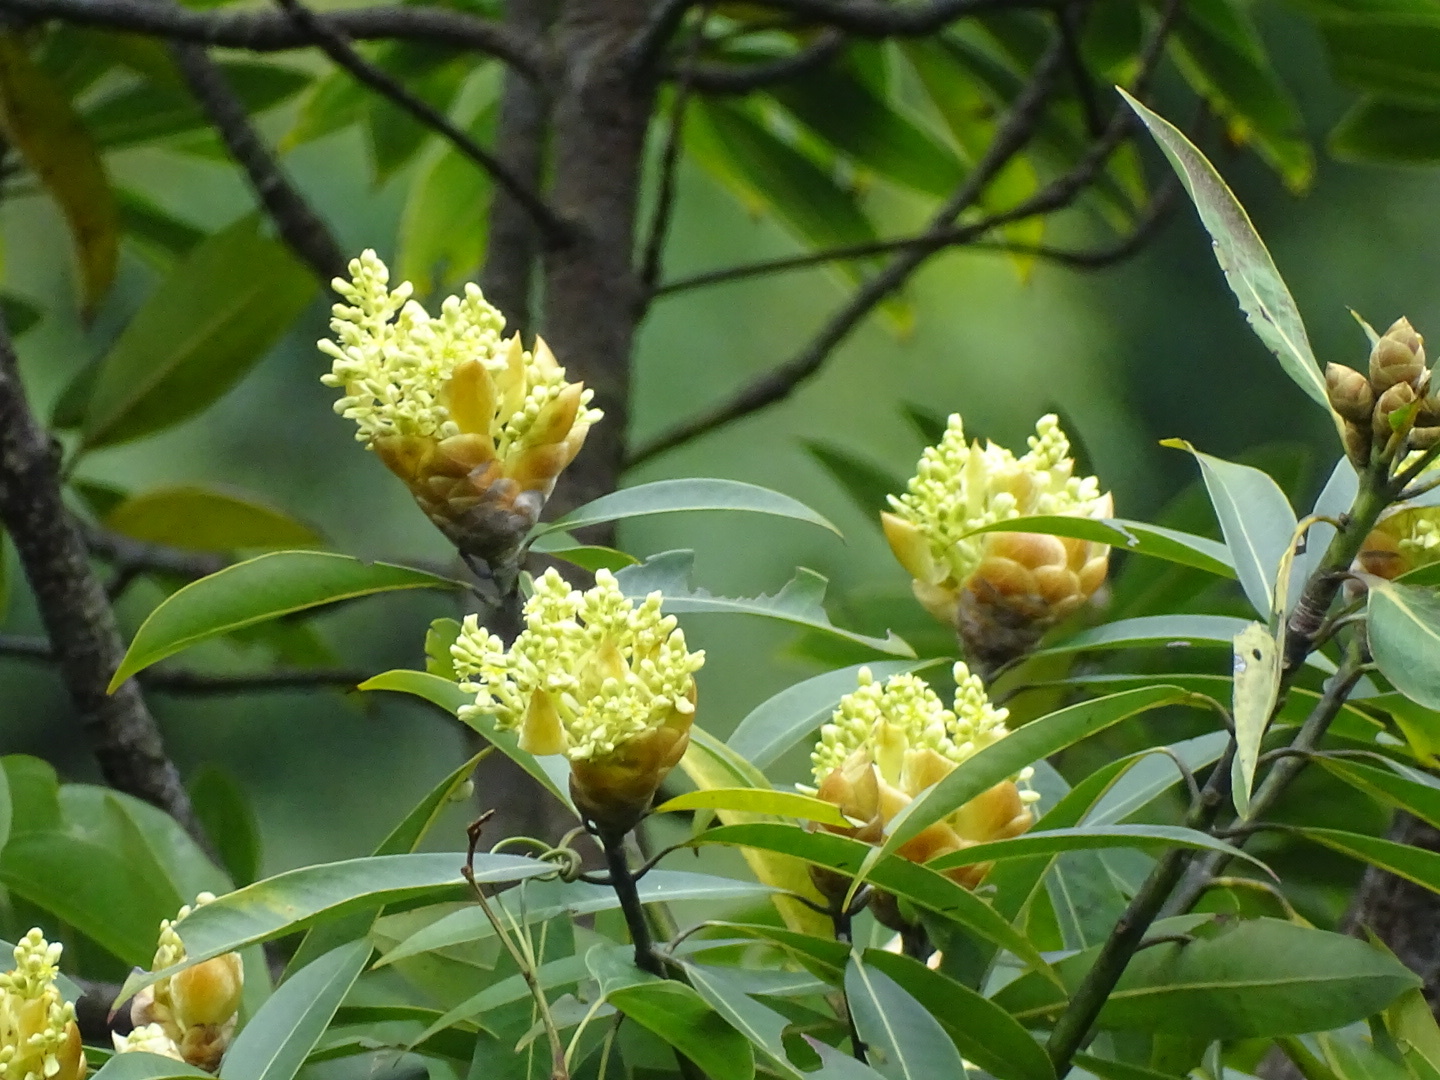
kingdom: Plantae
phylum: Tracheophyta
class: Magnoliopsida
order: Laurales
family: Lauraceae
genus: Machilus
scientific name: Machilus pauhoi
